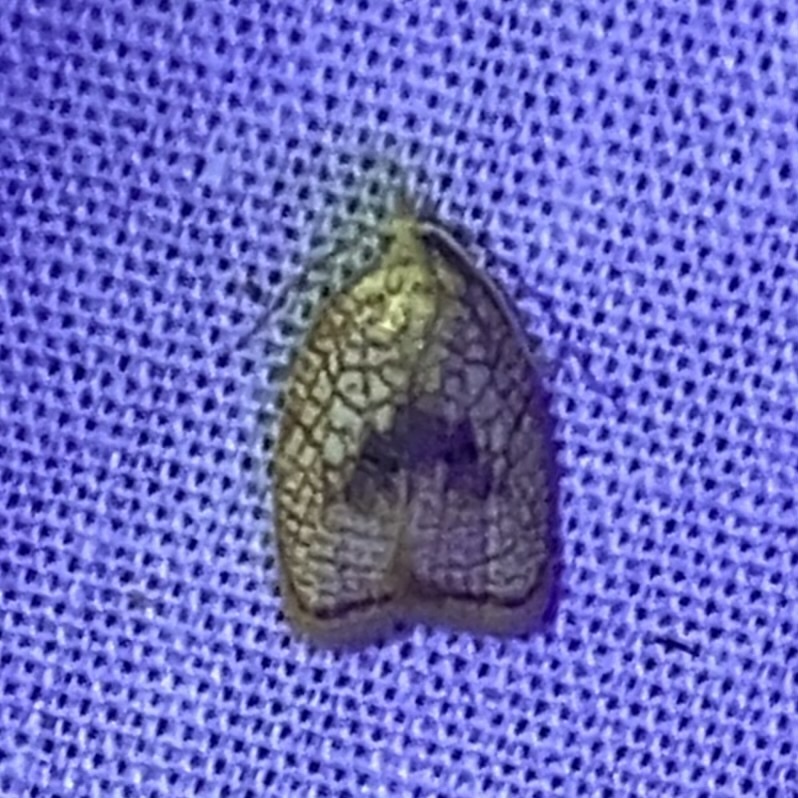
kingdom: Animalia
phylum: Arthropoda
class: Insecta
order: Lepidoptera
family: Tortricidae
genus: Acleris
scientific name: Acleris forsskaleana
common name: Maple button
